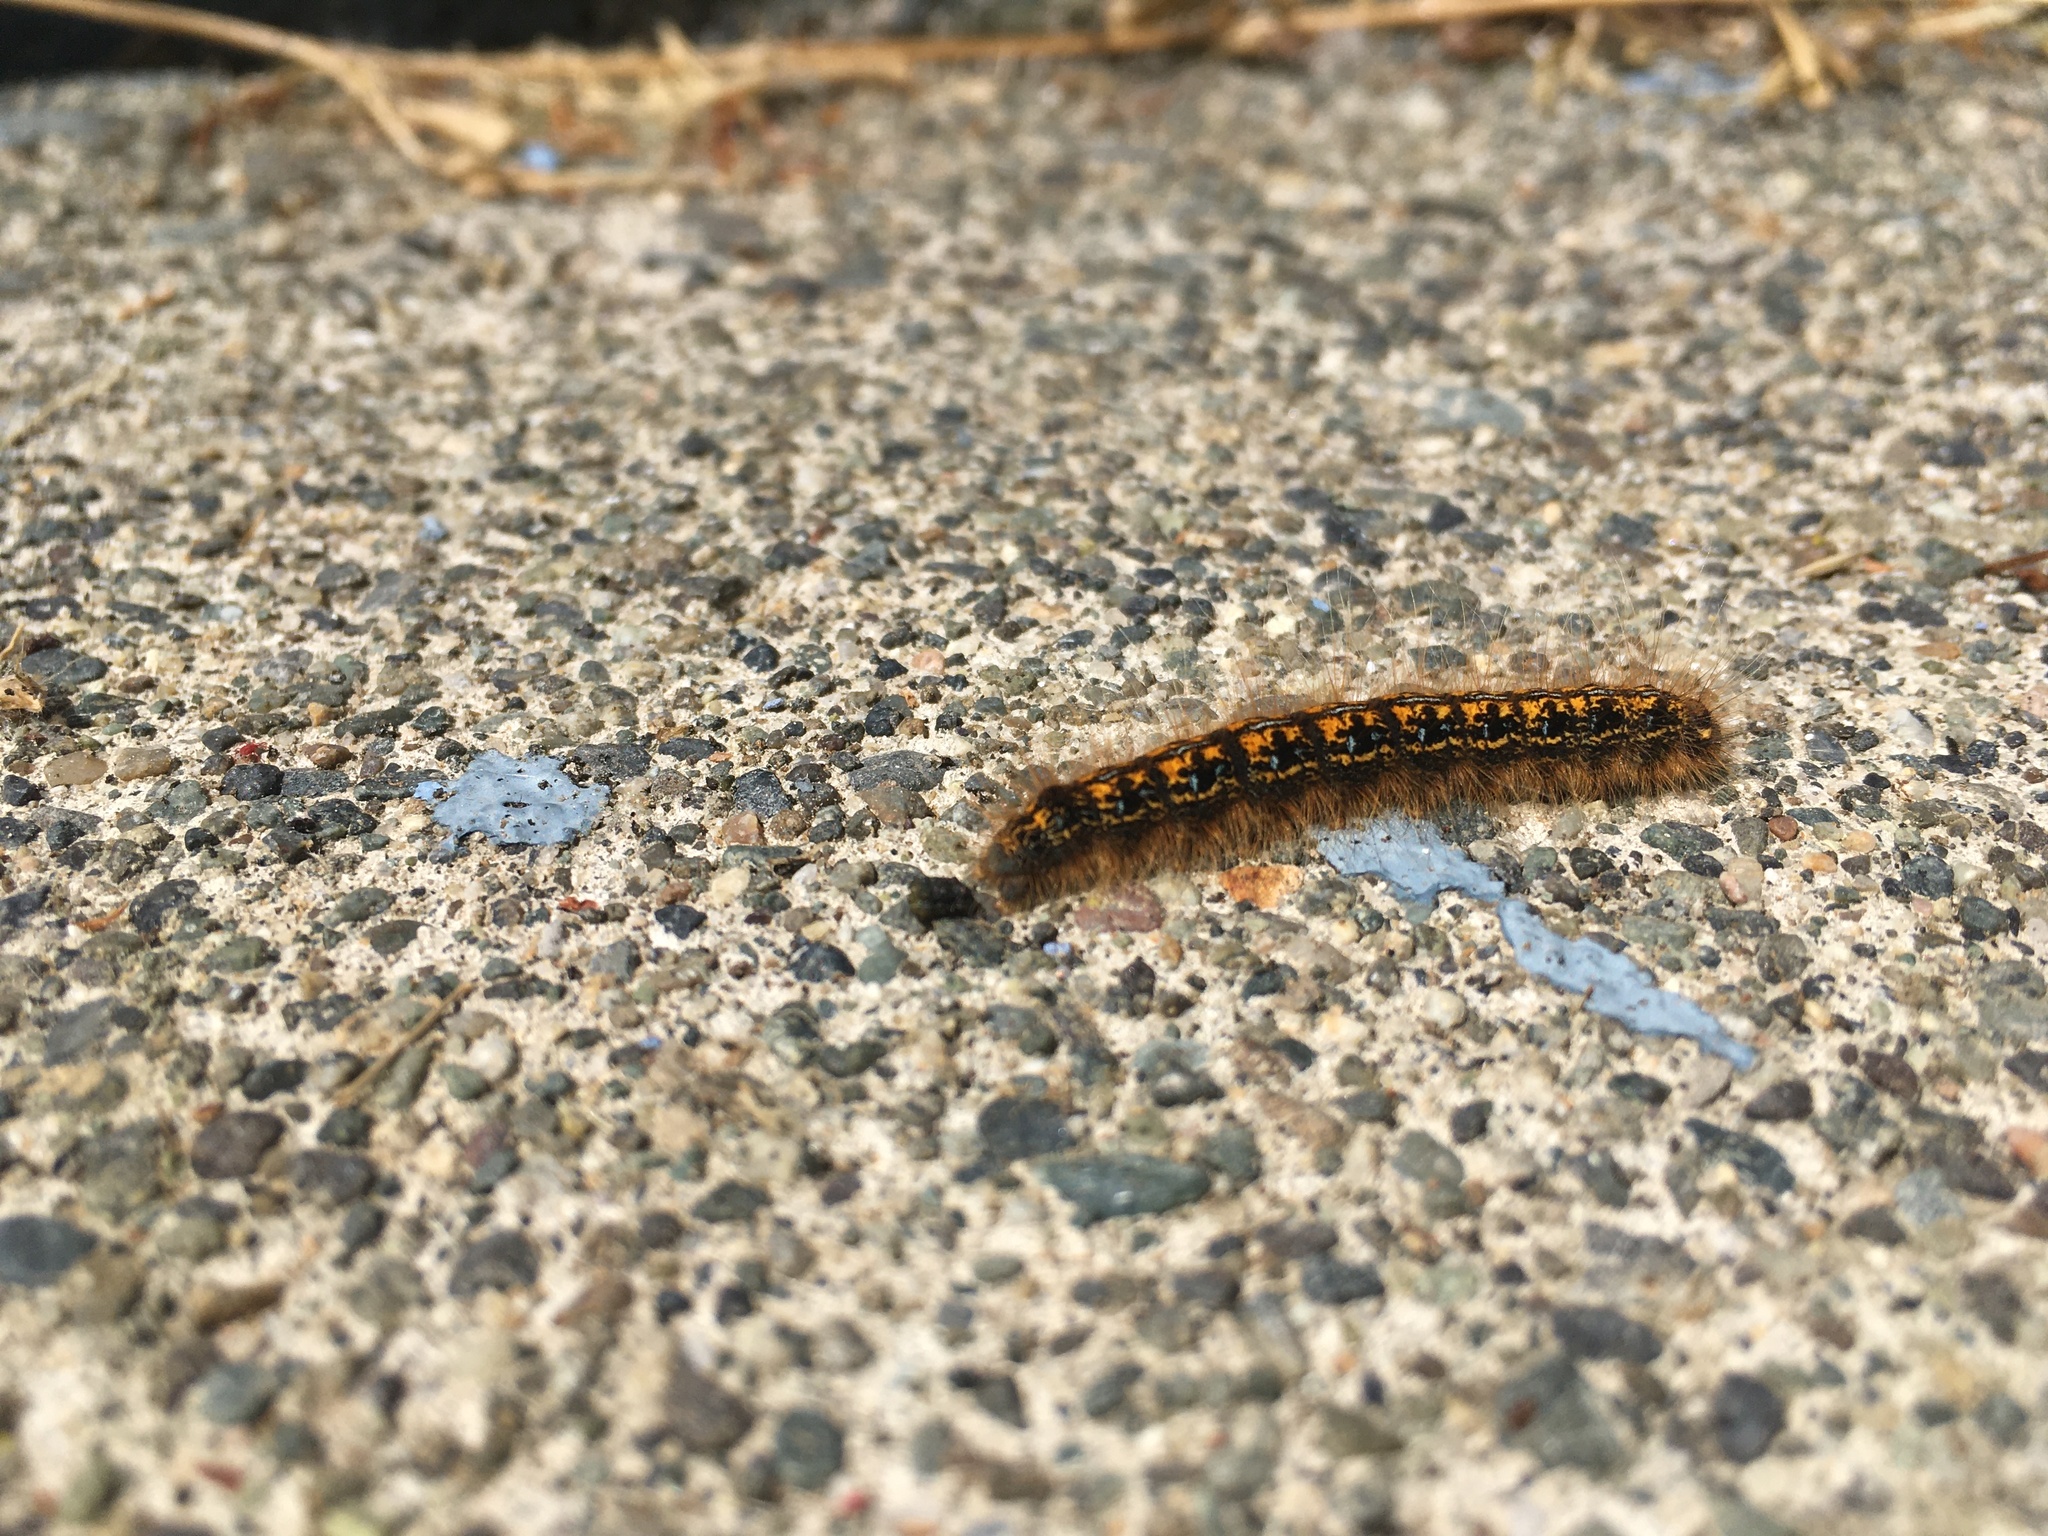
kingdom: Animalia
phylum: Arthropoda
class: Insecta
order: Lepidoptera
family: Lasiocampidae
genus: Malacosoma
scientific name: Malacosoma californica
